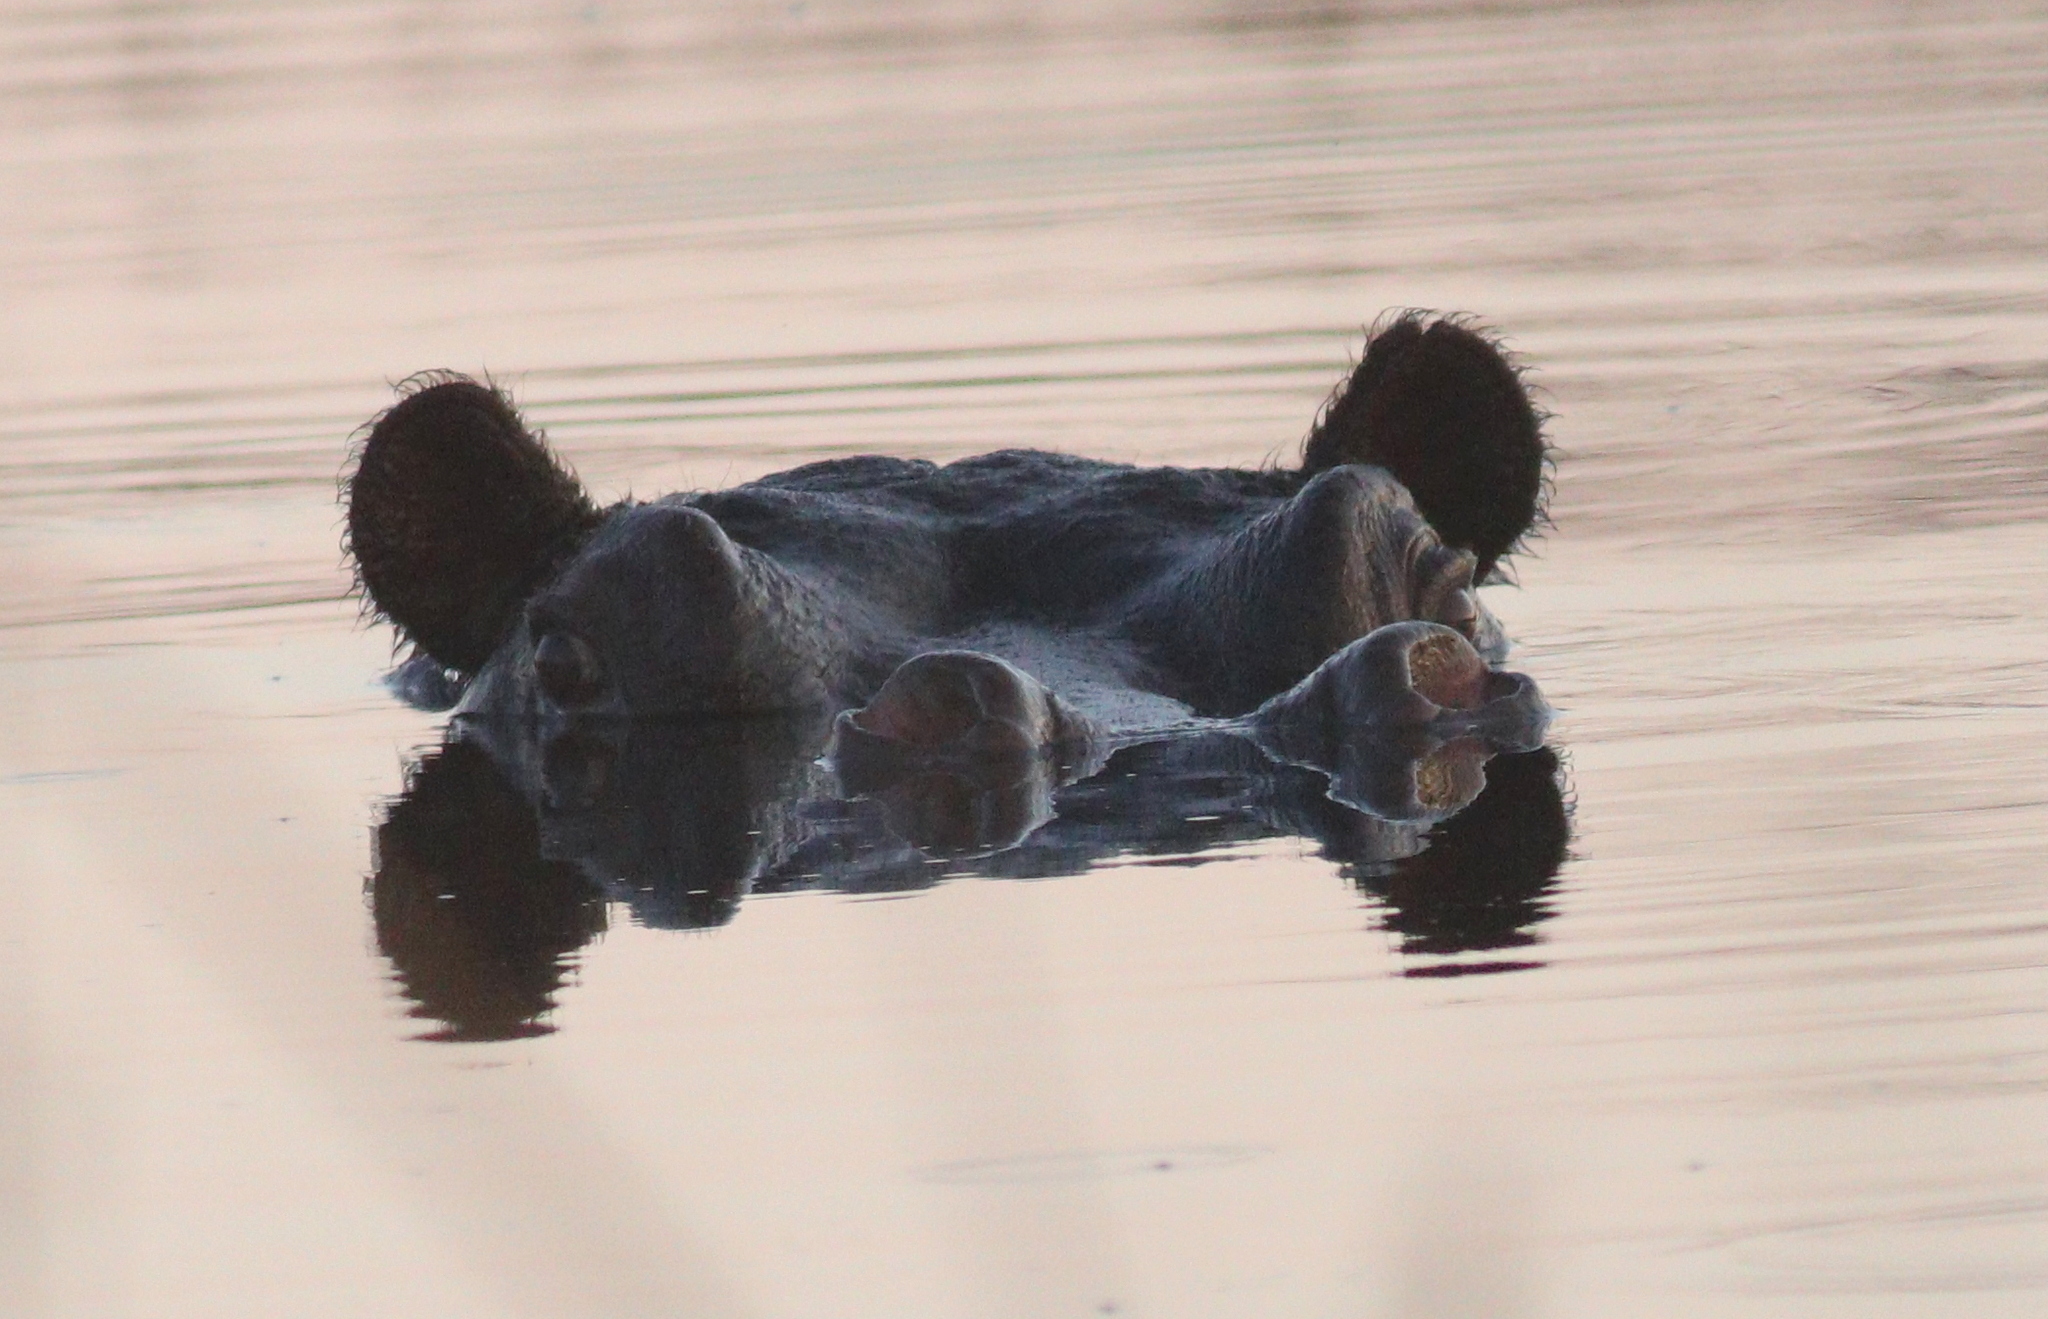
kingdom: Animalia
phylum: Chordata
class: Mammalia
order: Artiodactyla
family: Hippopotamidae
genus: Hippopotamus
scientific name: Hippopotamus amphibius
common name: Common hippopotamus
